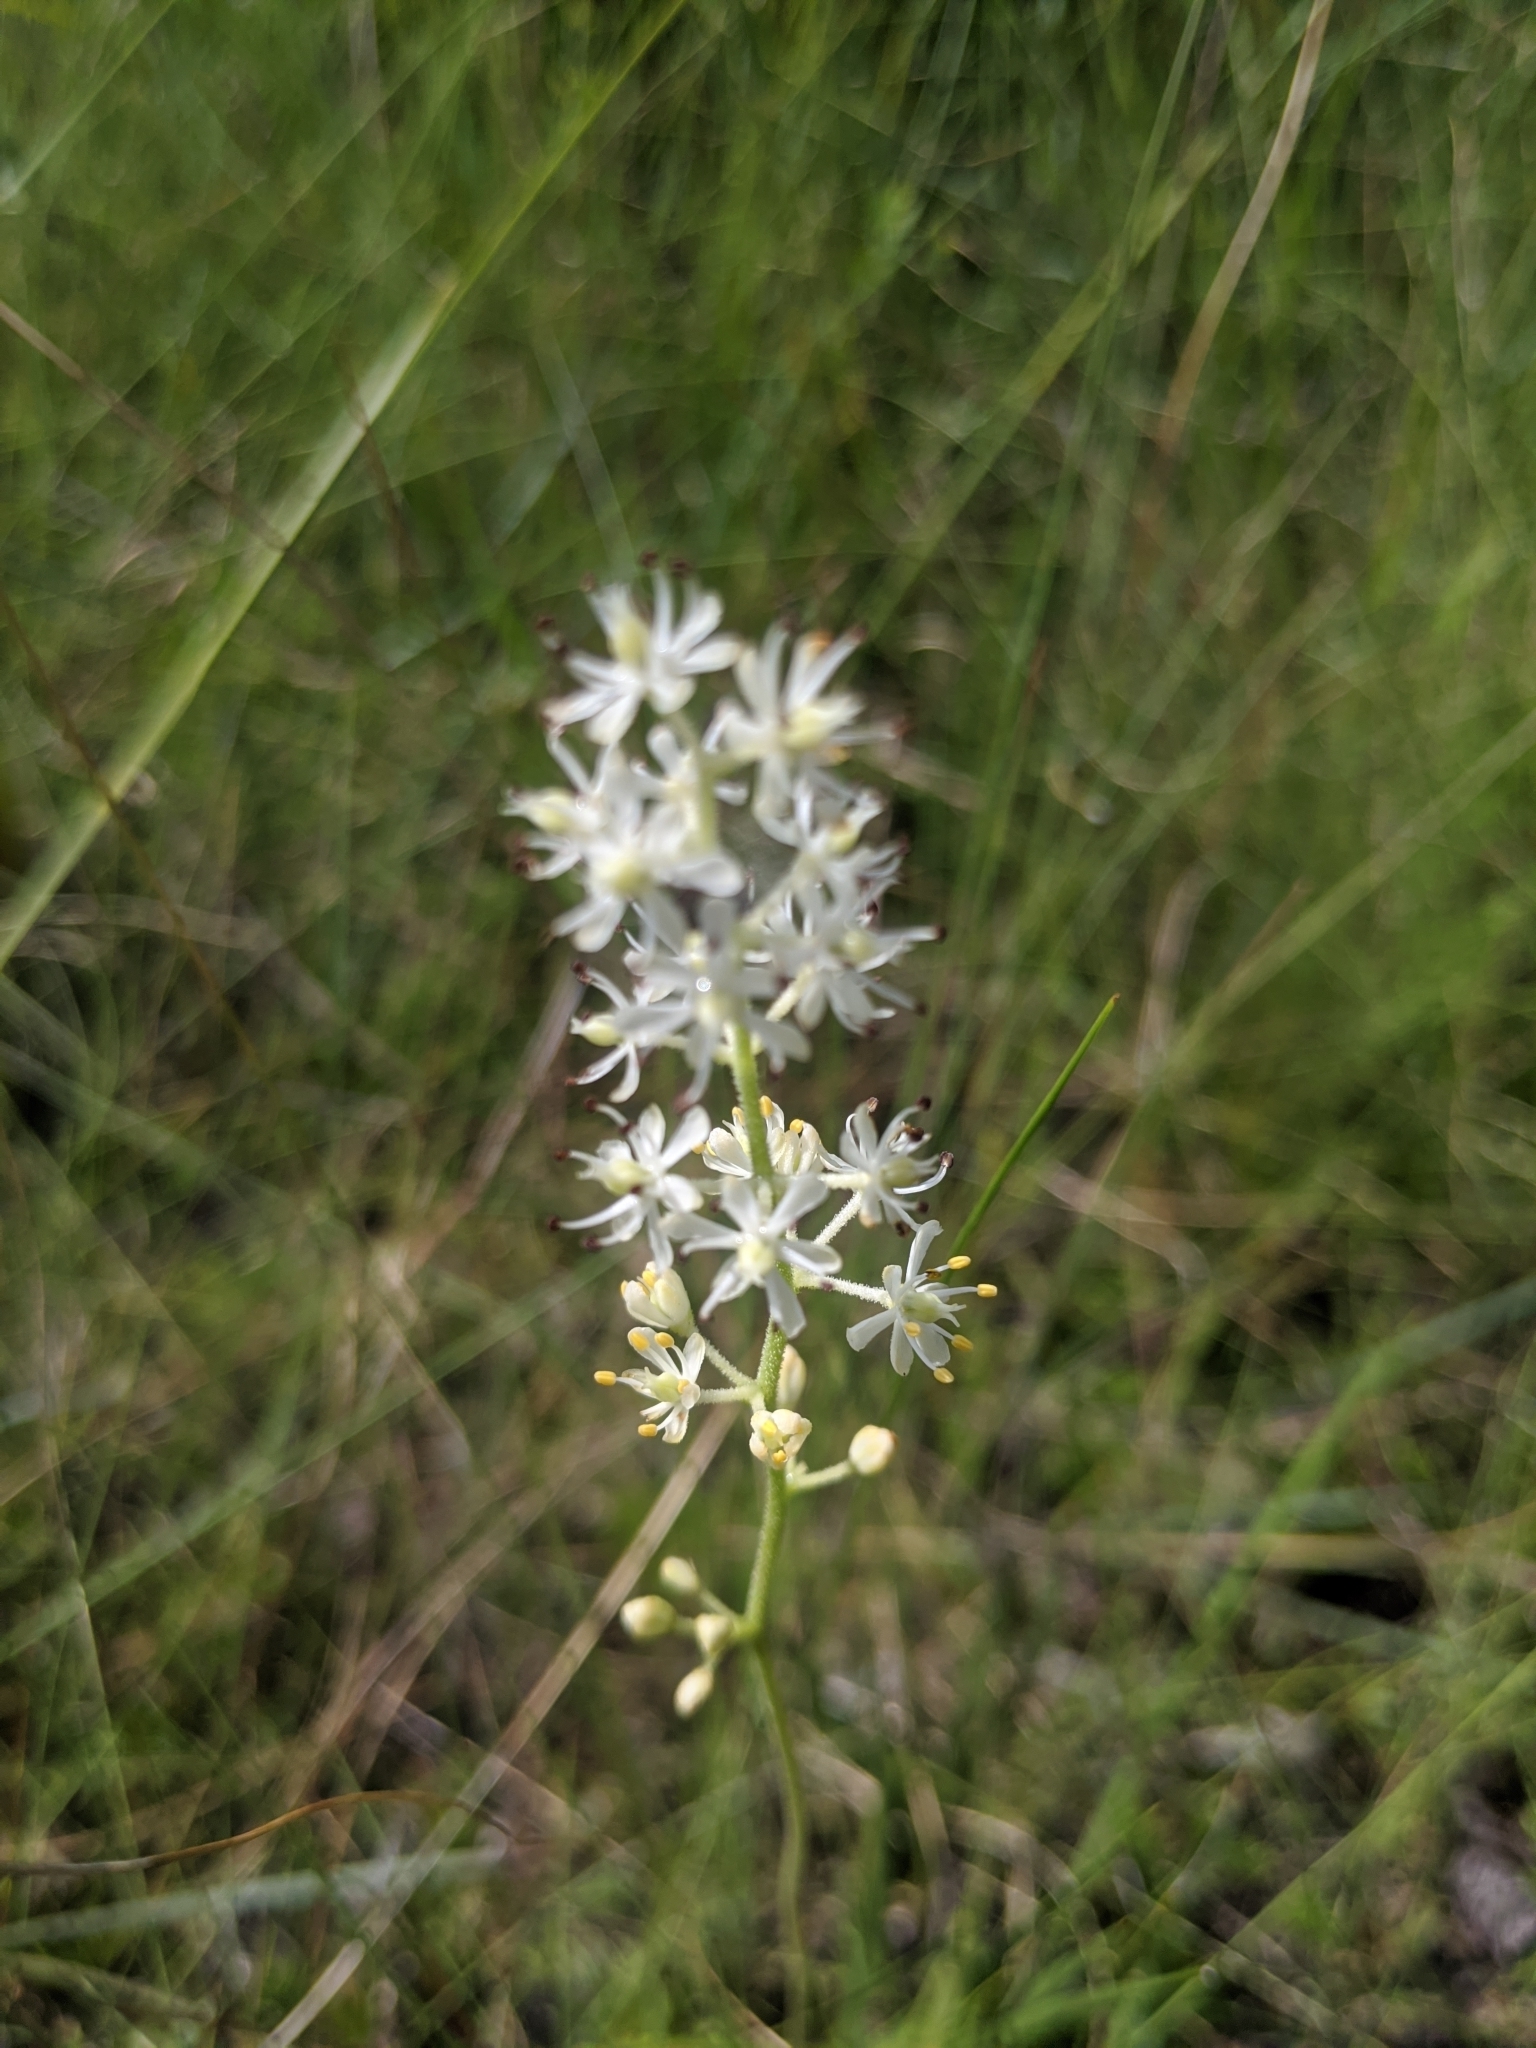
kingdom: Plantae
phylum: Tracheophyta
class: Liliopsida
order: Alismatales
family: Tofieldiaceae
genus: Triantha
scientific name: Triantha racemosa
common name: Coastal false asphodel
